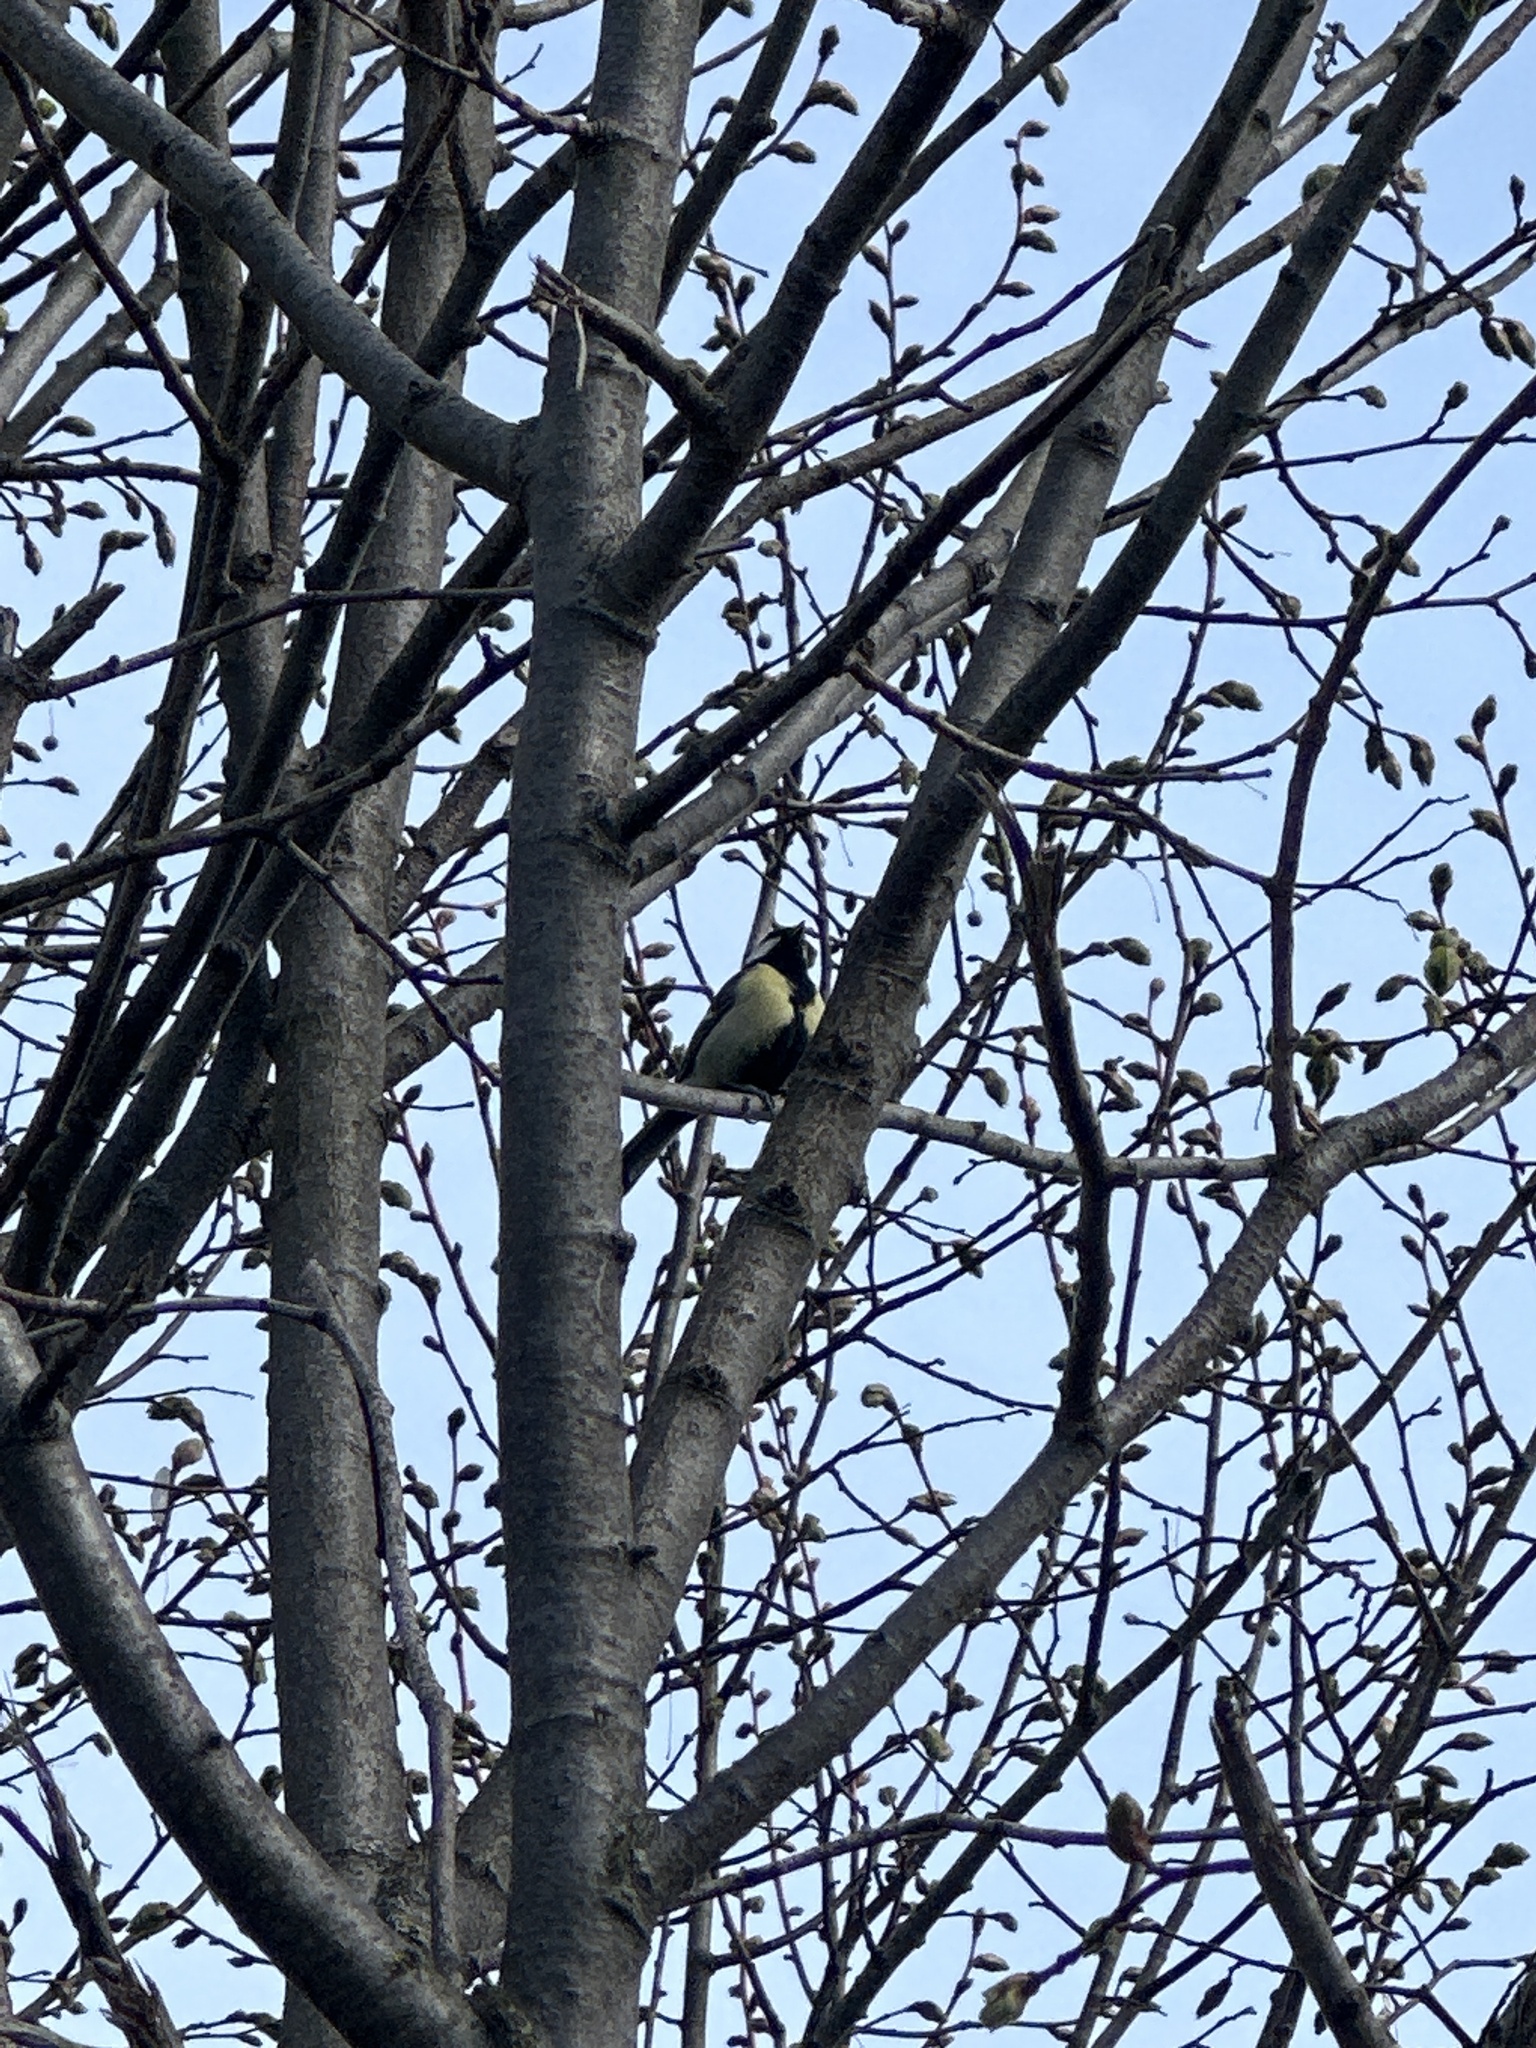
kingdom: Animalia
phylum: Chordata
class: Aves
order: Passeriformes
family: Paridae
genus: Parus
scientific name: Parus major
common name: Great tit
